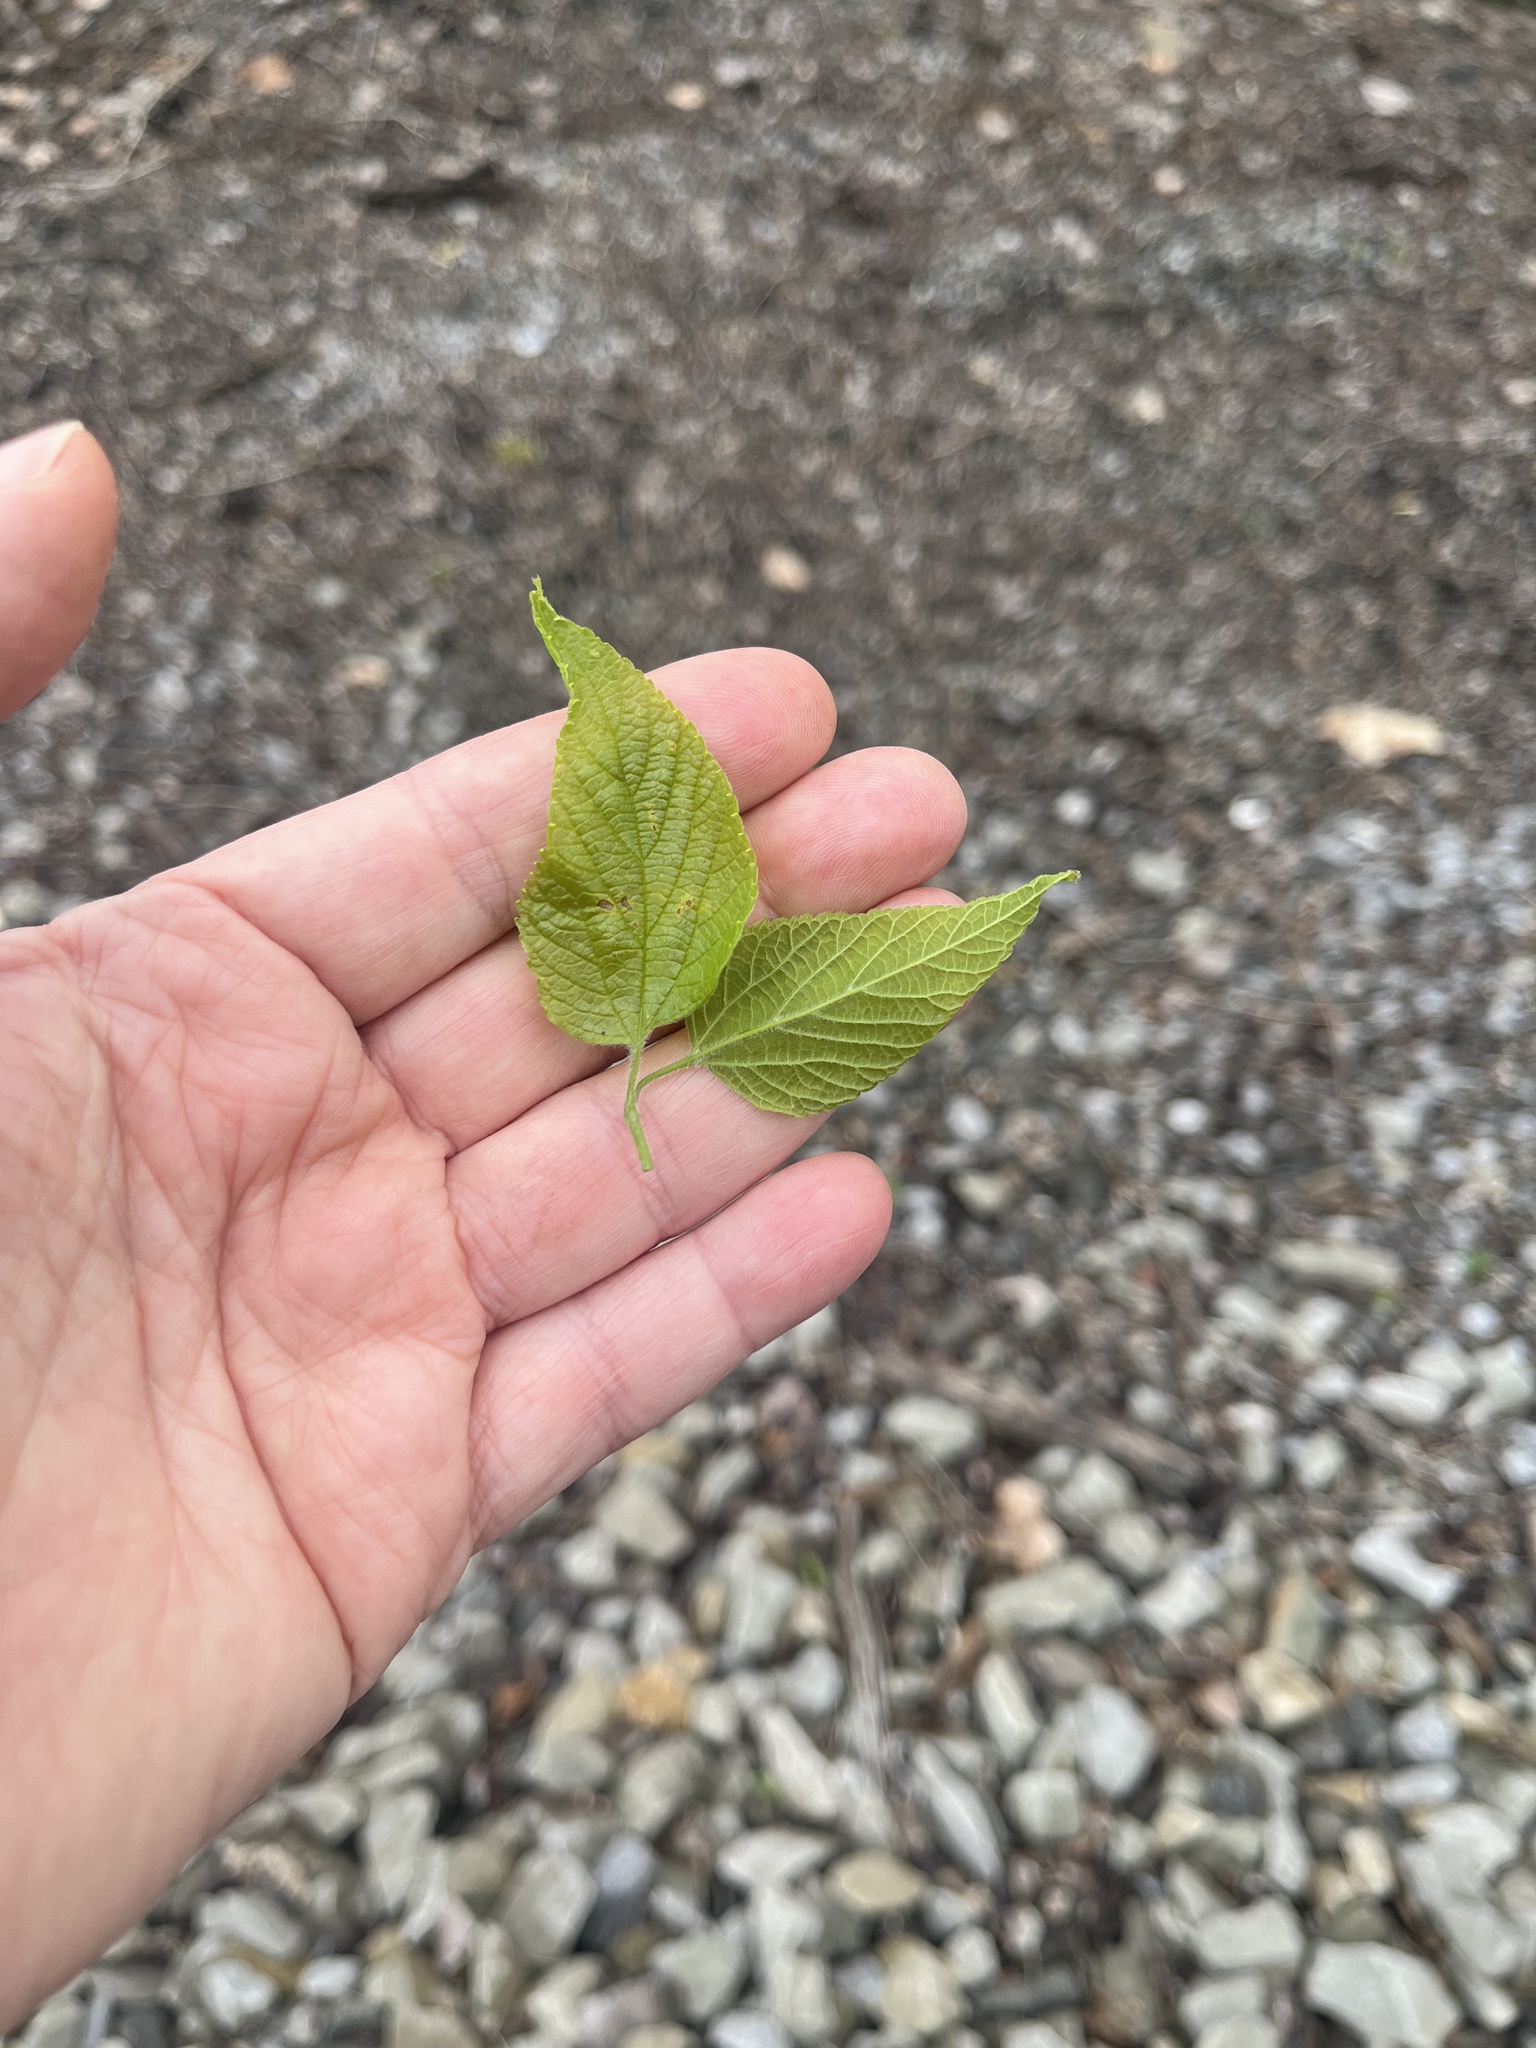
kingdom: Plantae
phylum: Tracheophyta
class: Magnoliopsida
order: Rosales
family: Cannabaceae
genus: Celtis
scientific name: Celtis occidentalis
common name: Common hackberry
